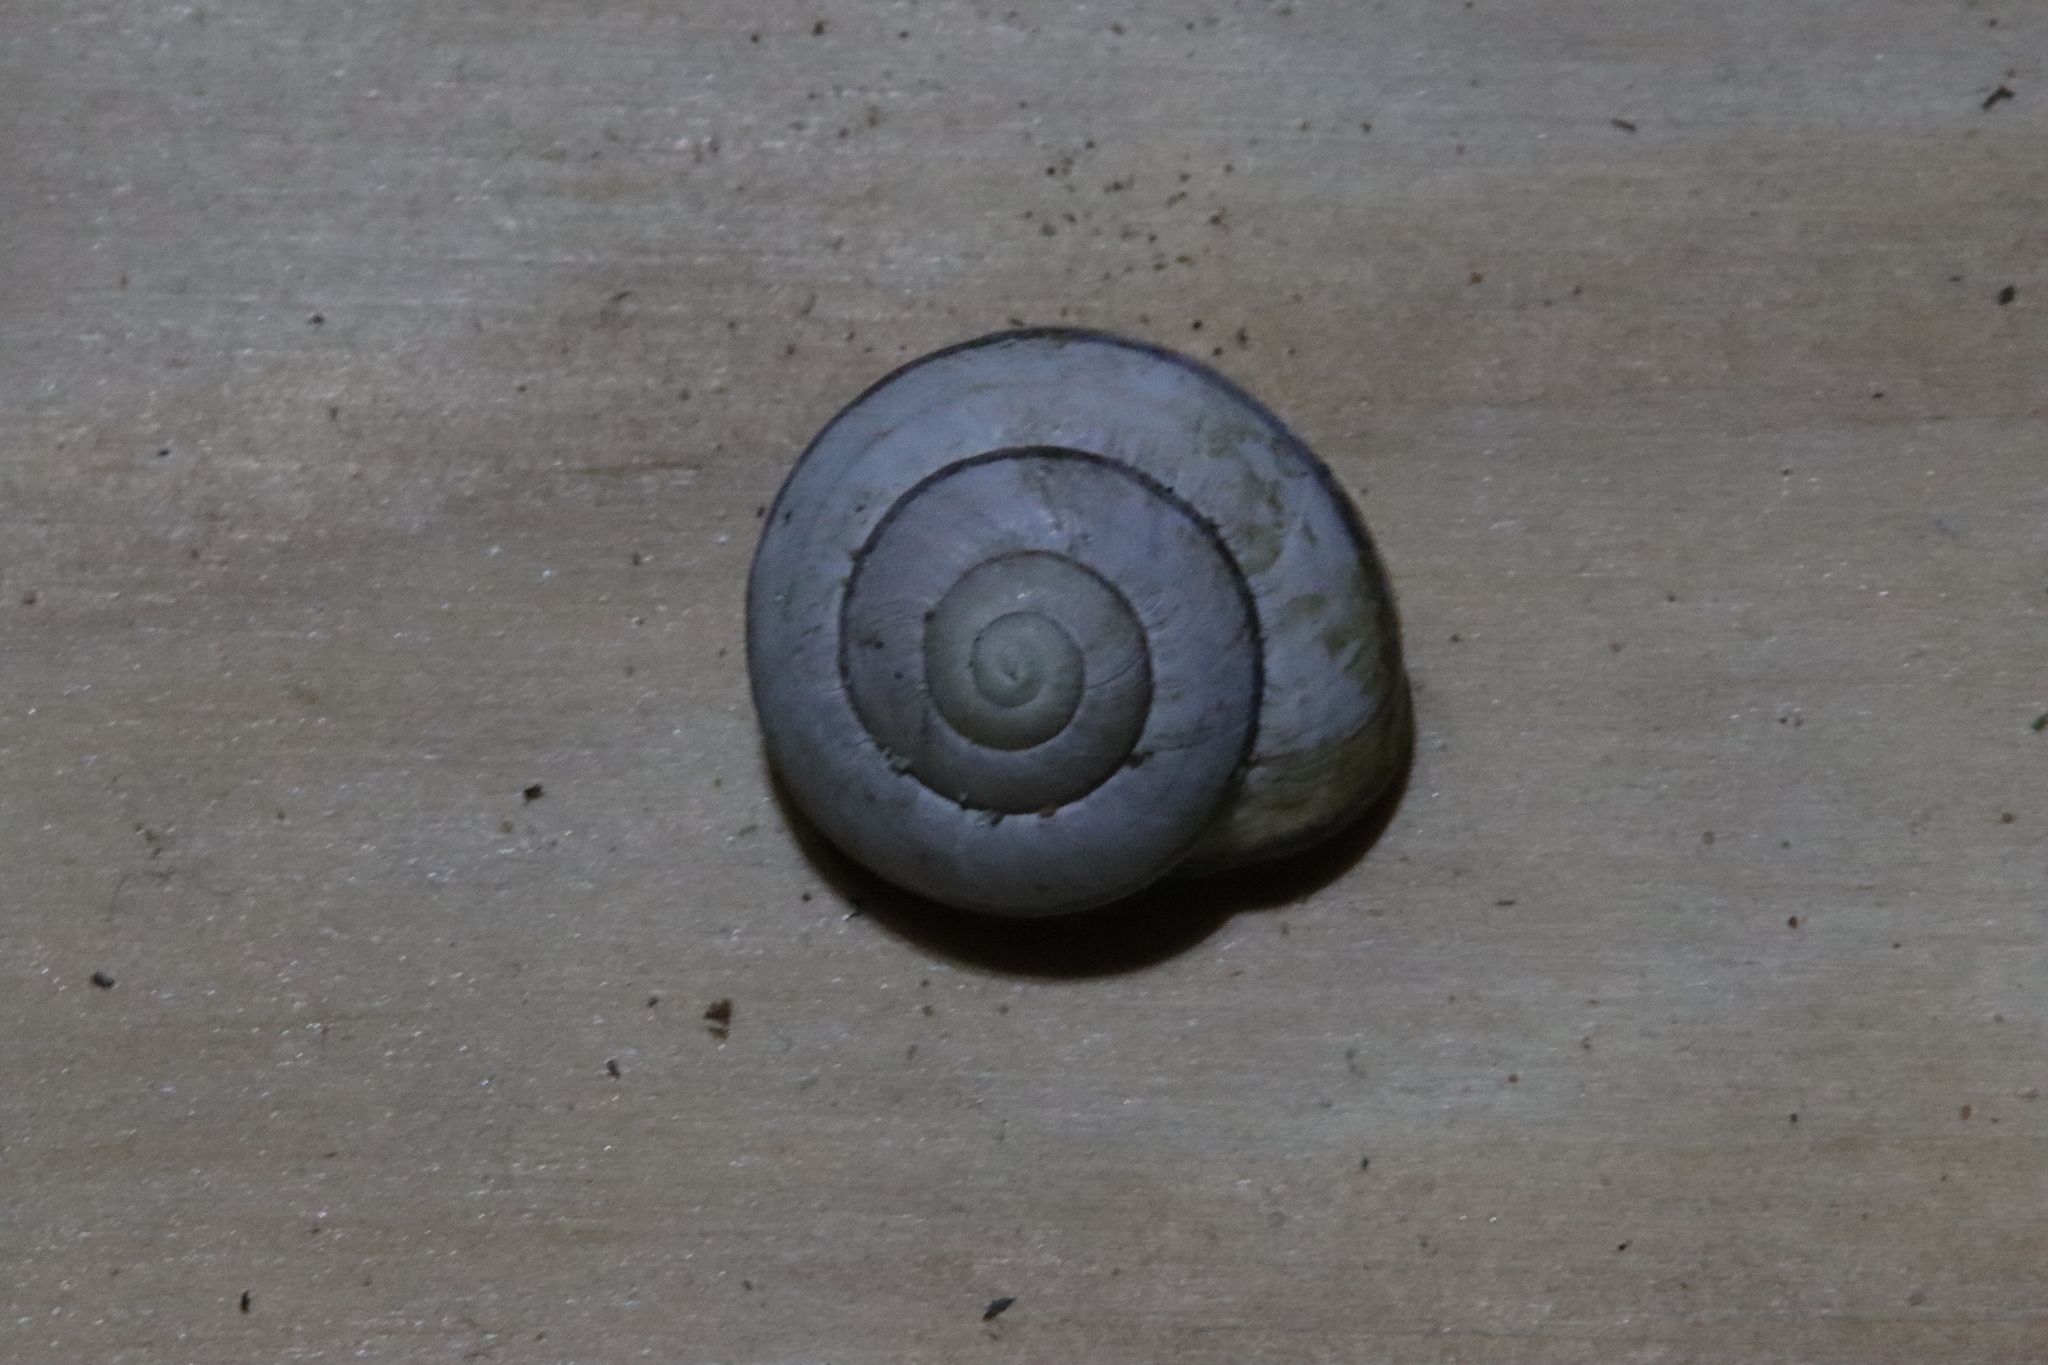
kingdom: Animalia
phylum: Mollusca
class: Gastropoda
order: Stylommatophora
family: Helicidae
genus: Cepaea
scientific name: Cepaea nemoralis
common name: Grovesnail
